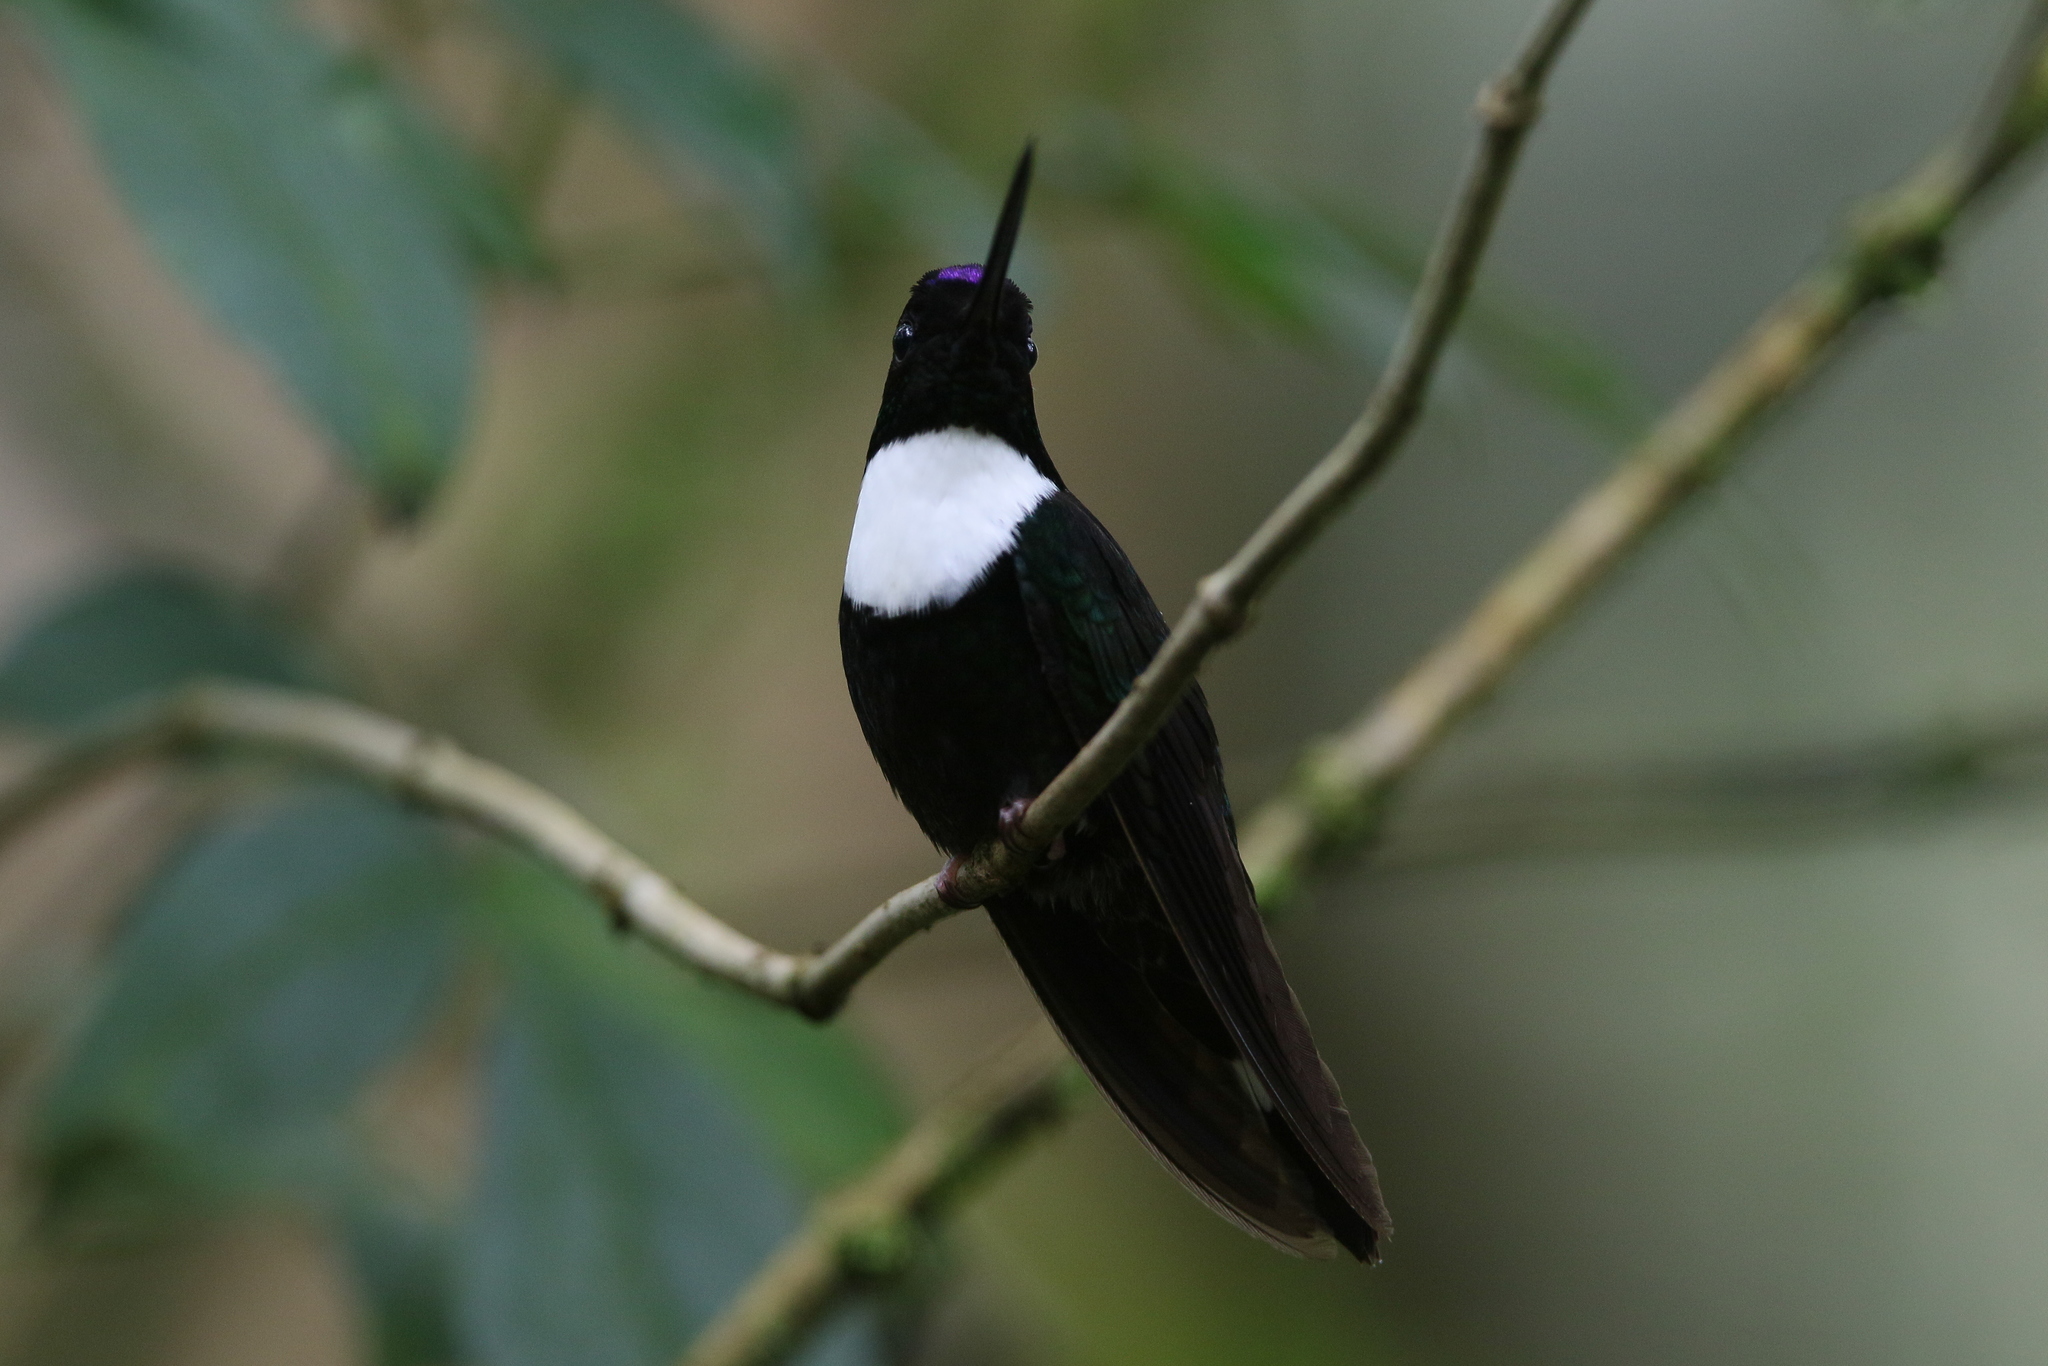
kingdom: Animalia
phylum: Chordata
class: Aves
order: Apodiformes
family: Trochilidae
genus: Coeligena
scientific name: Coeligena torquata
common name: Collared inca
